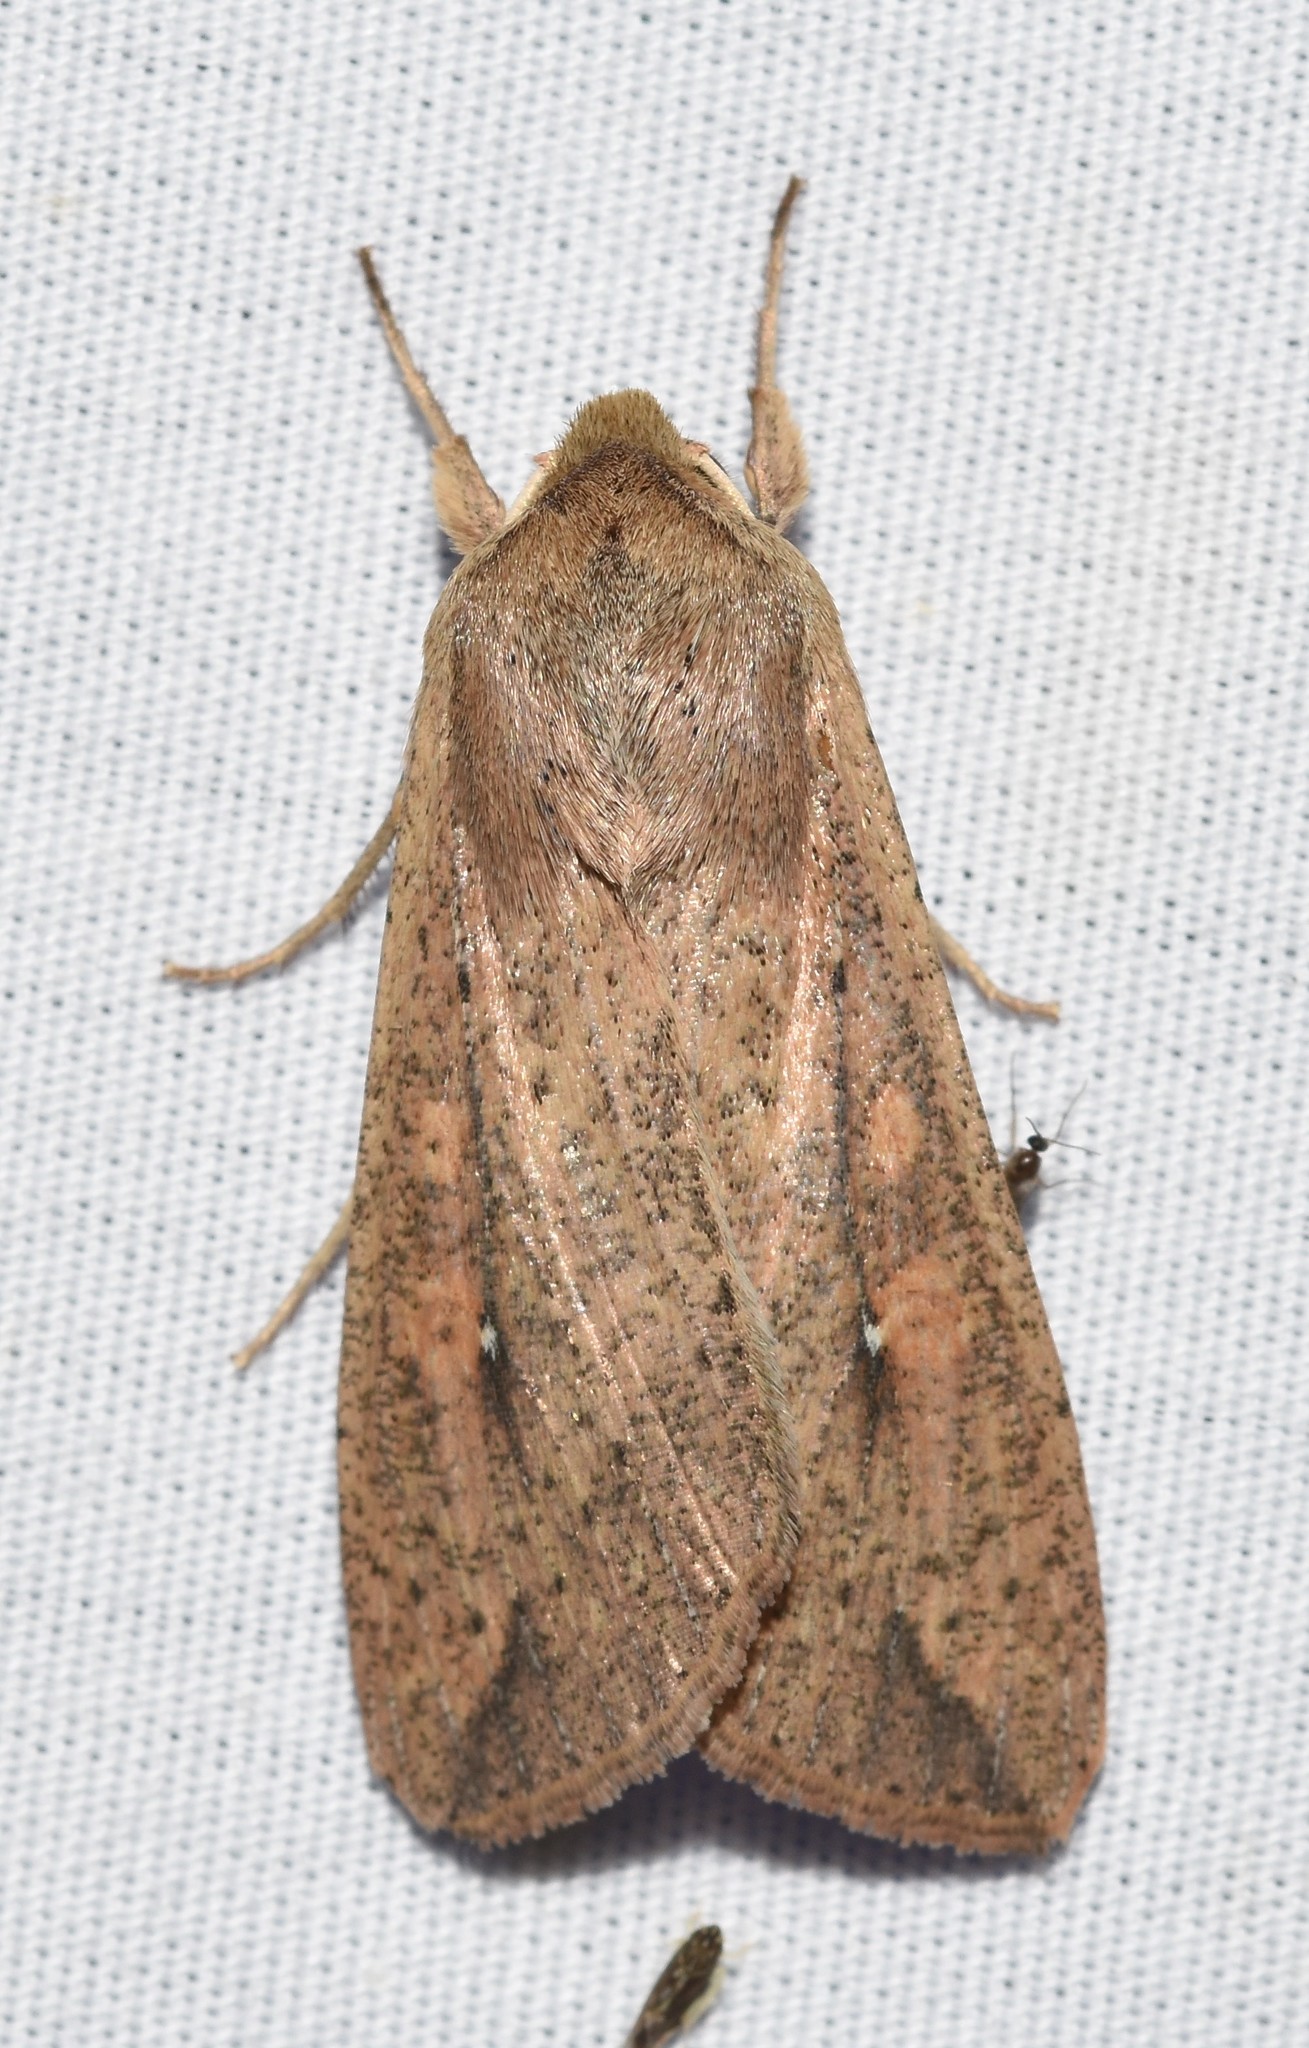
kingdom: Animalia
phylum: Arthropoda
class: Insecta
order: Lepidoptera
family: Noctuidae
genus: Mythimna
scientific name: Mythimna unipuncta
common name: White-speck
